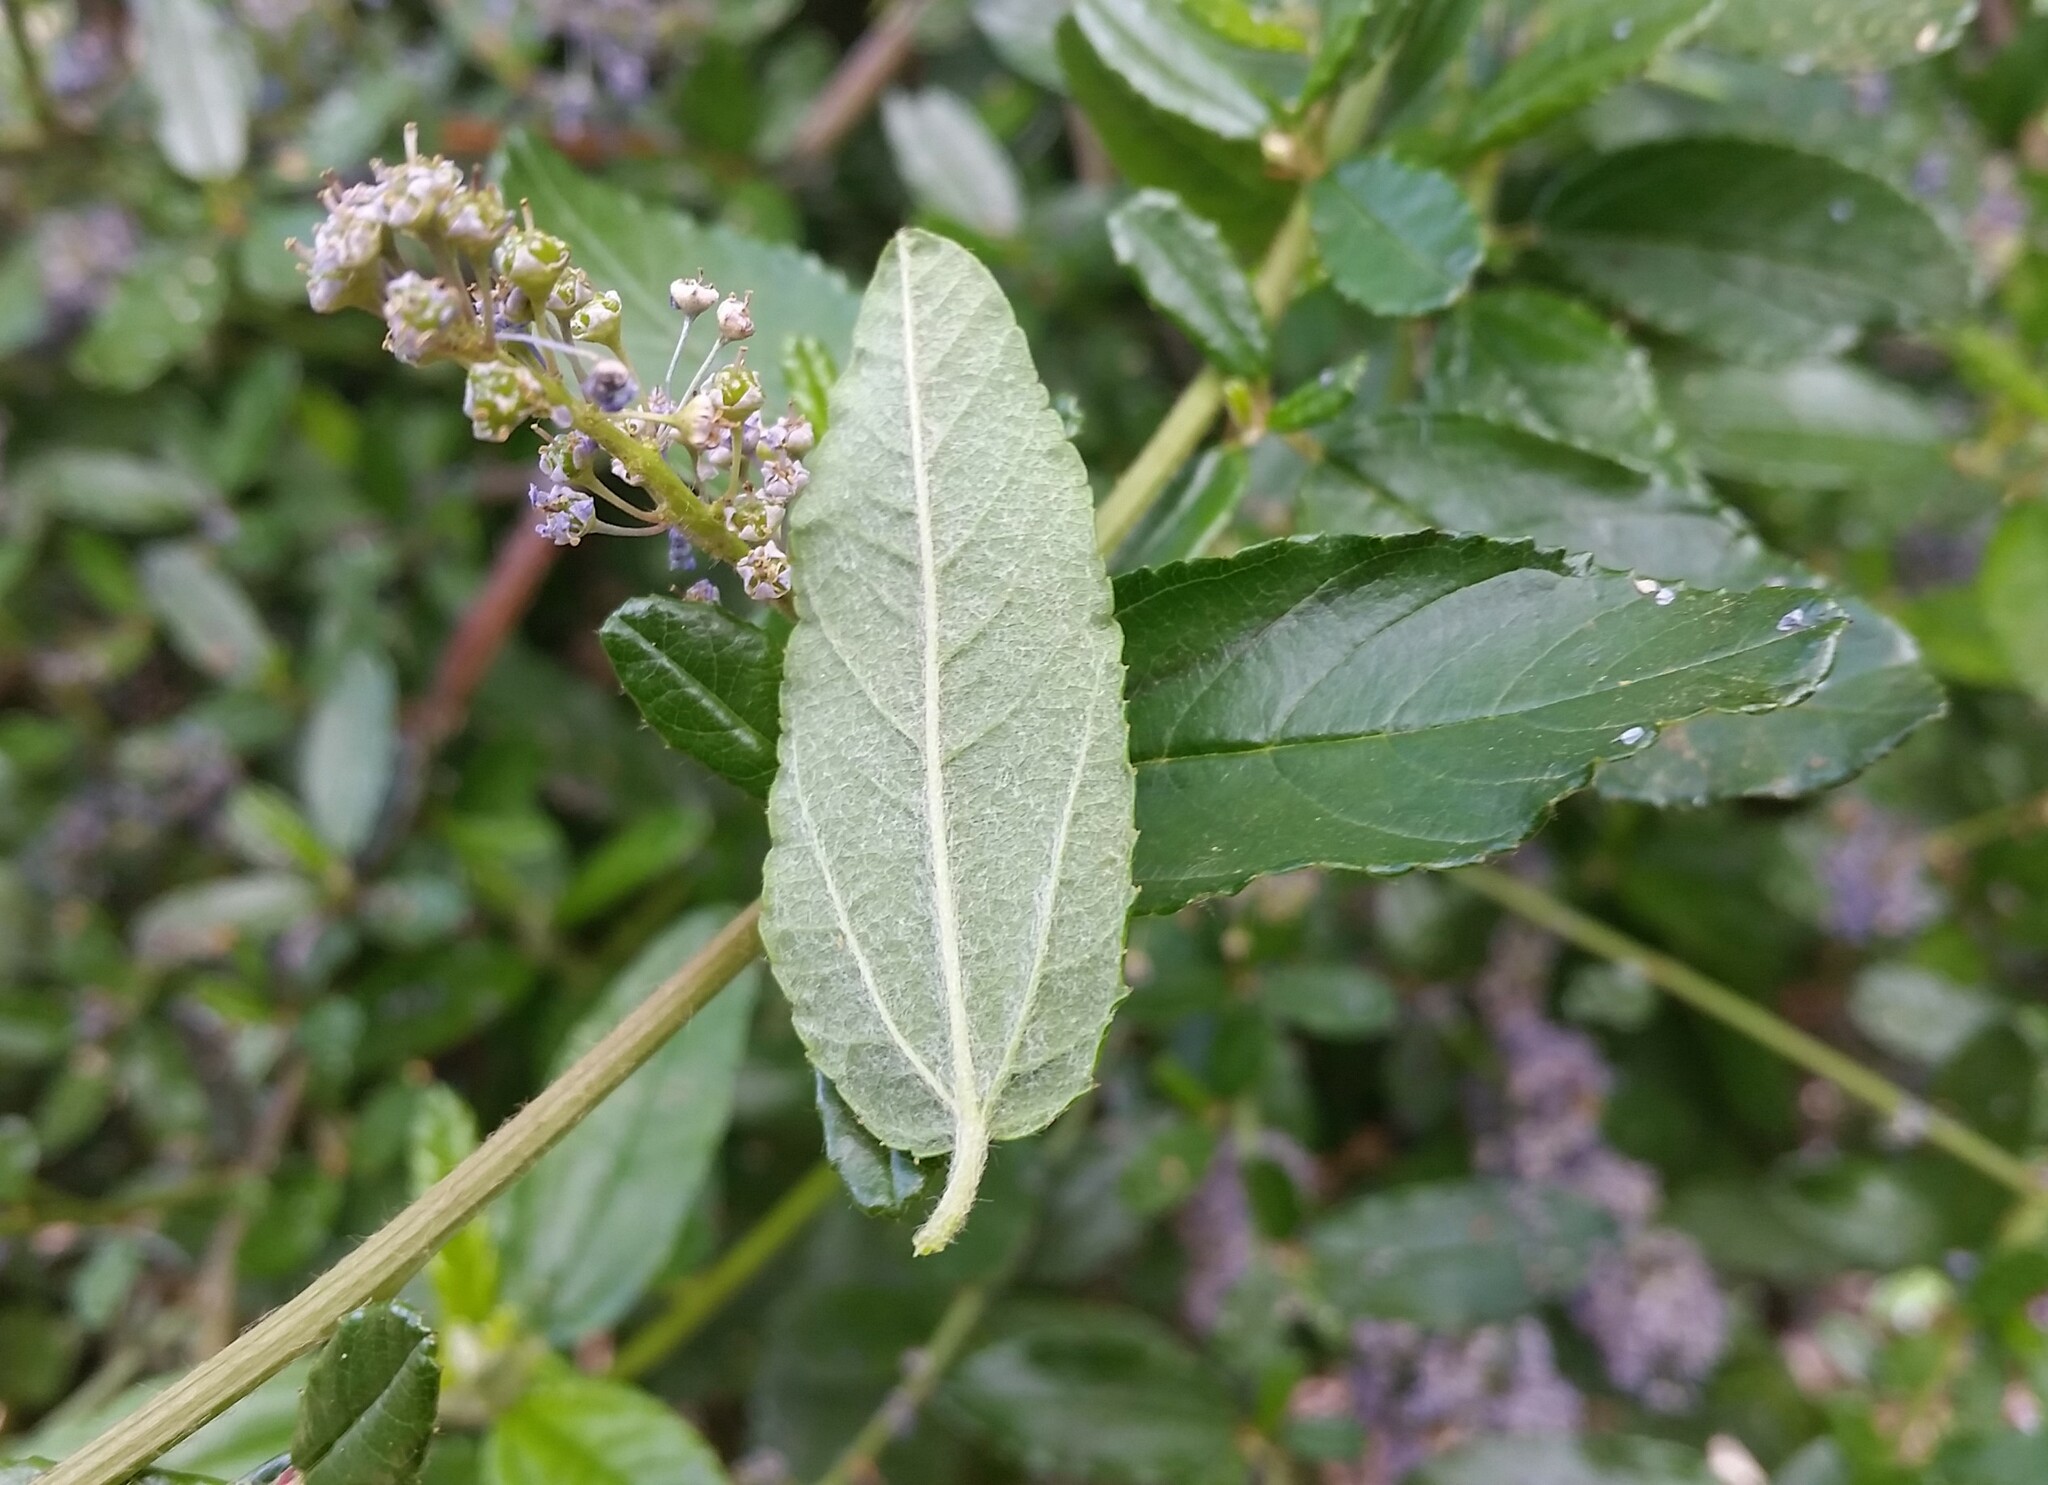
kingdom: Plantae
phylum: Tracheophyta
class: Magnoliopsida
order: Rosales
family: Rhamnaceae
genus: Ceanothus
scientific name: Ceanothus parryi
